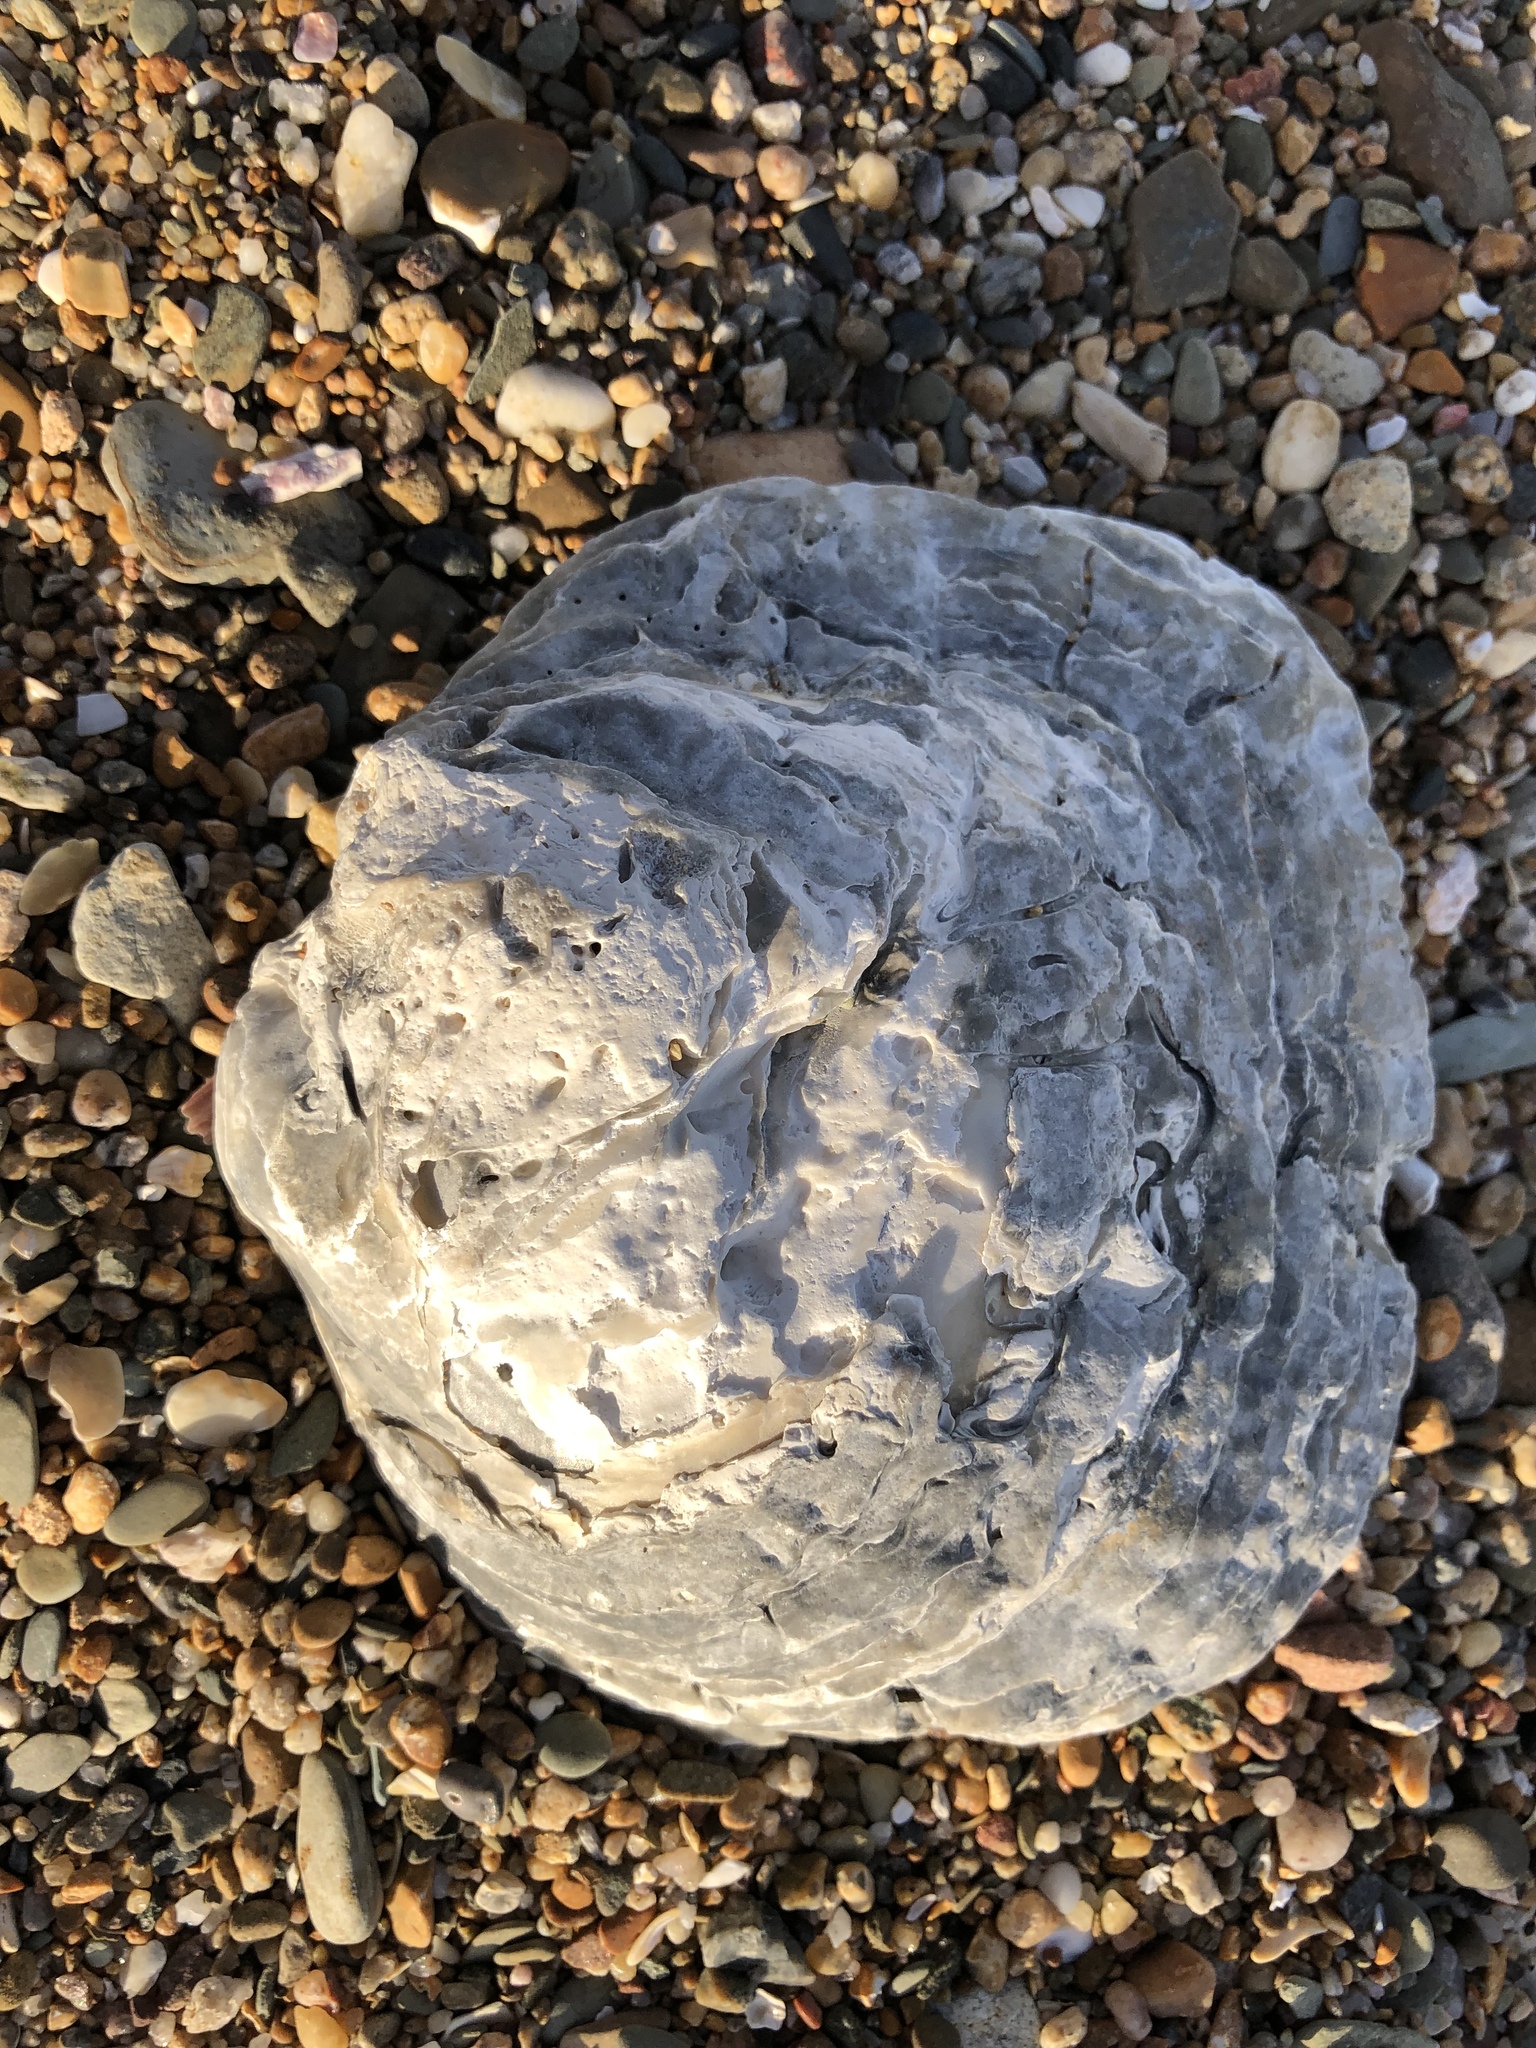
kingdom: Animalia
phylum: Mollusca
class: Bivalvia
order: Ostreida
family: Ostreidae
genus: Ostrea
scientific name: Ostrea edulis
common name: Flat oyster
